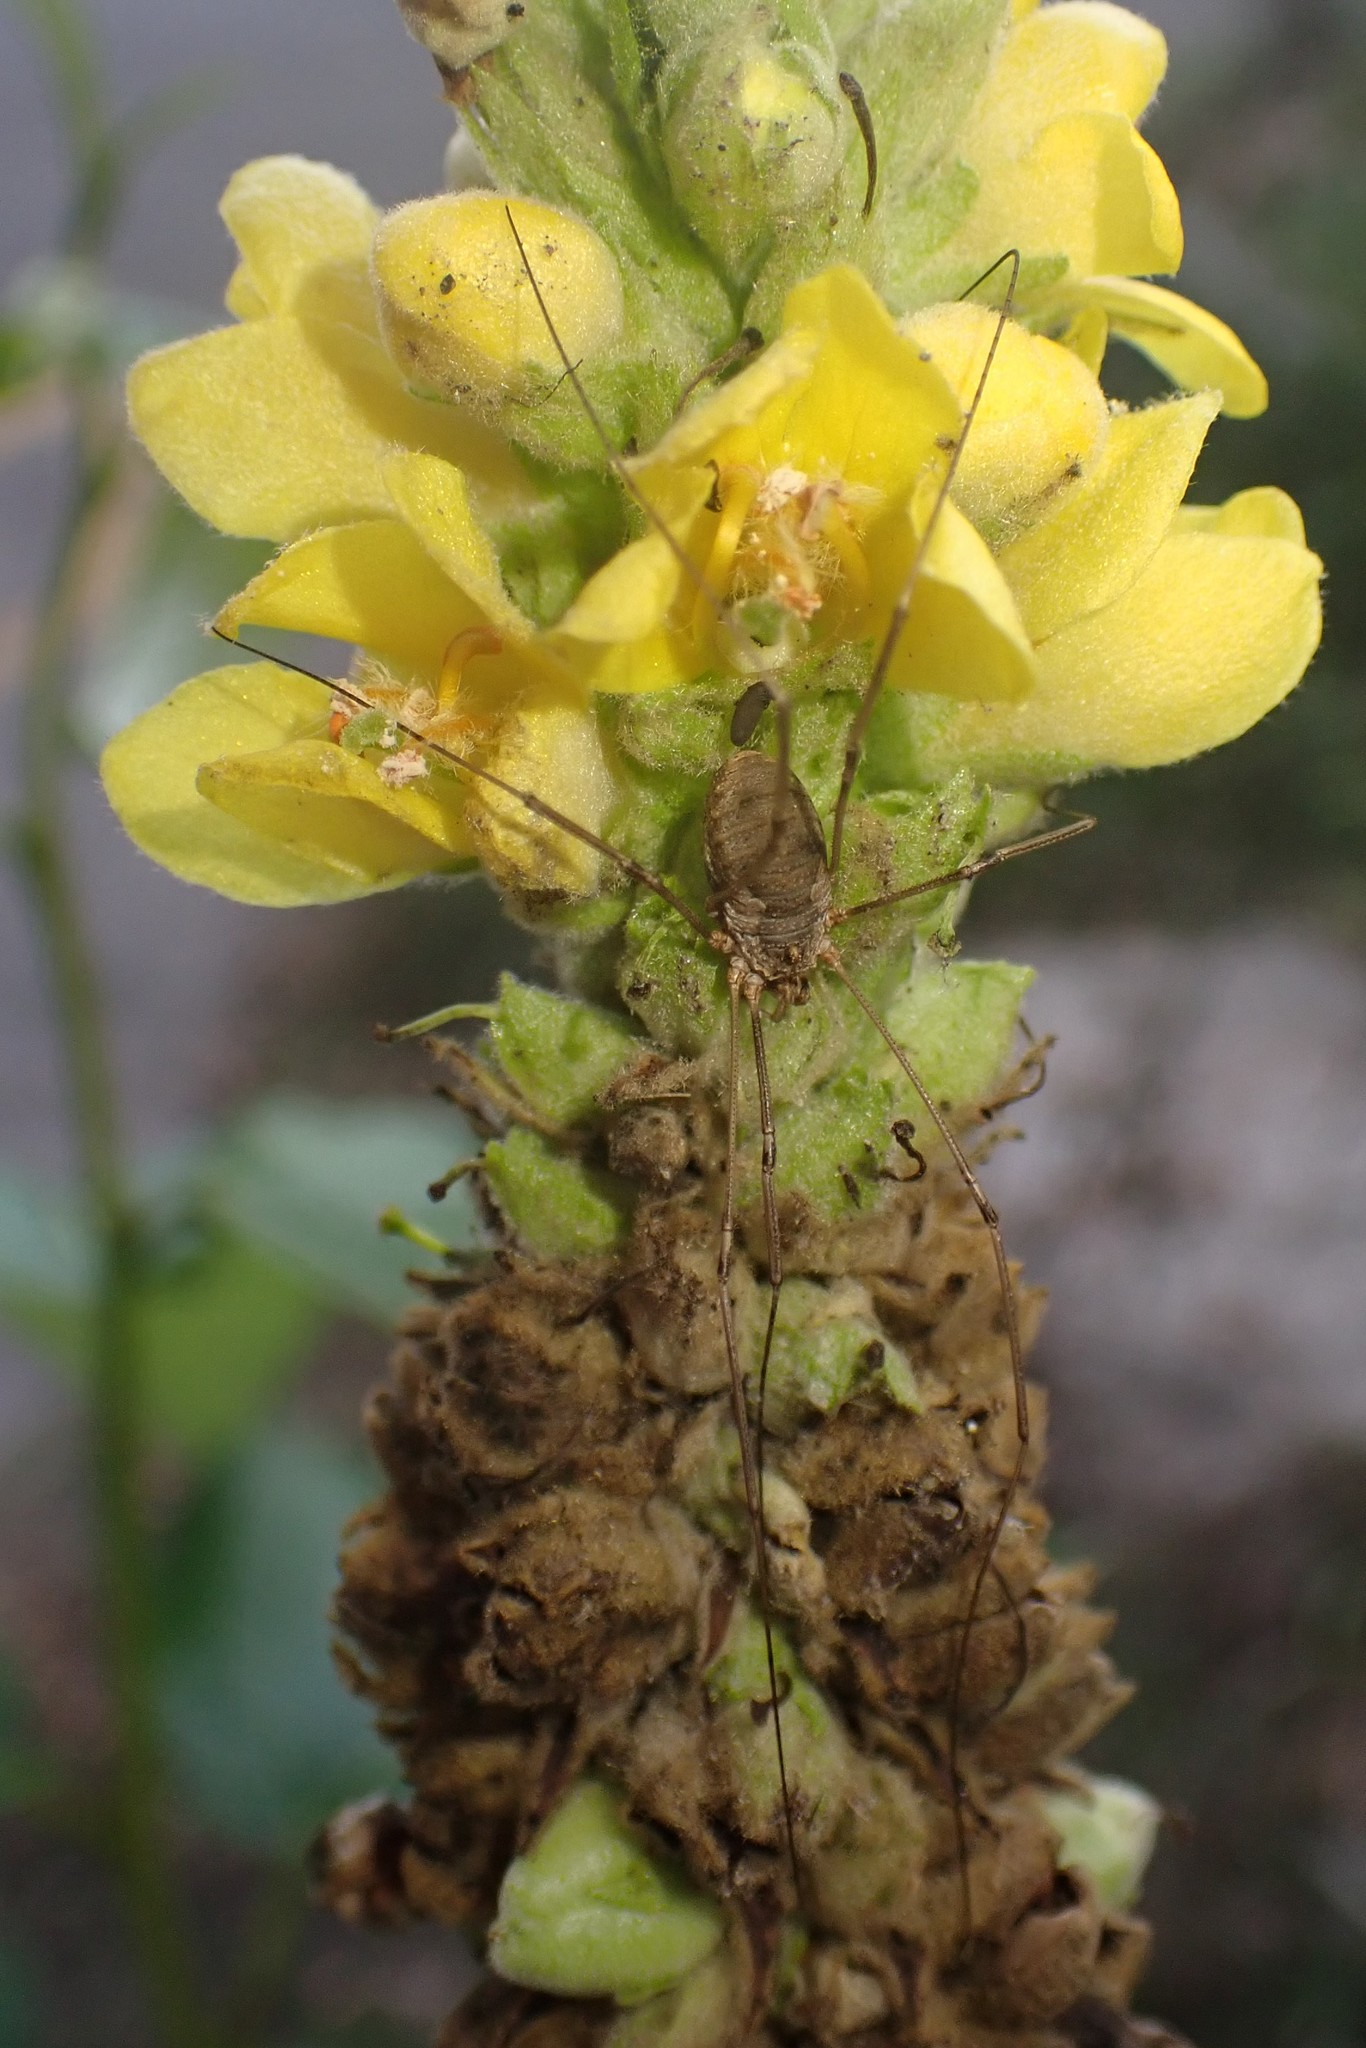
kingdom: Animalia
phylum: Arthropoda
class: Arachnida
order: Opiliones
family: Phalangiidae
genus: Phalangium
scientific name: Phalangium opilio
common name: Daddy longleg
